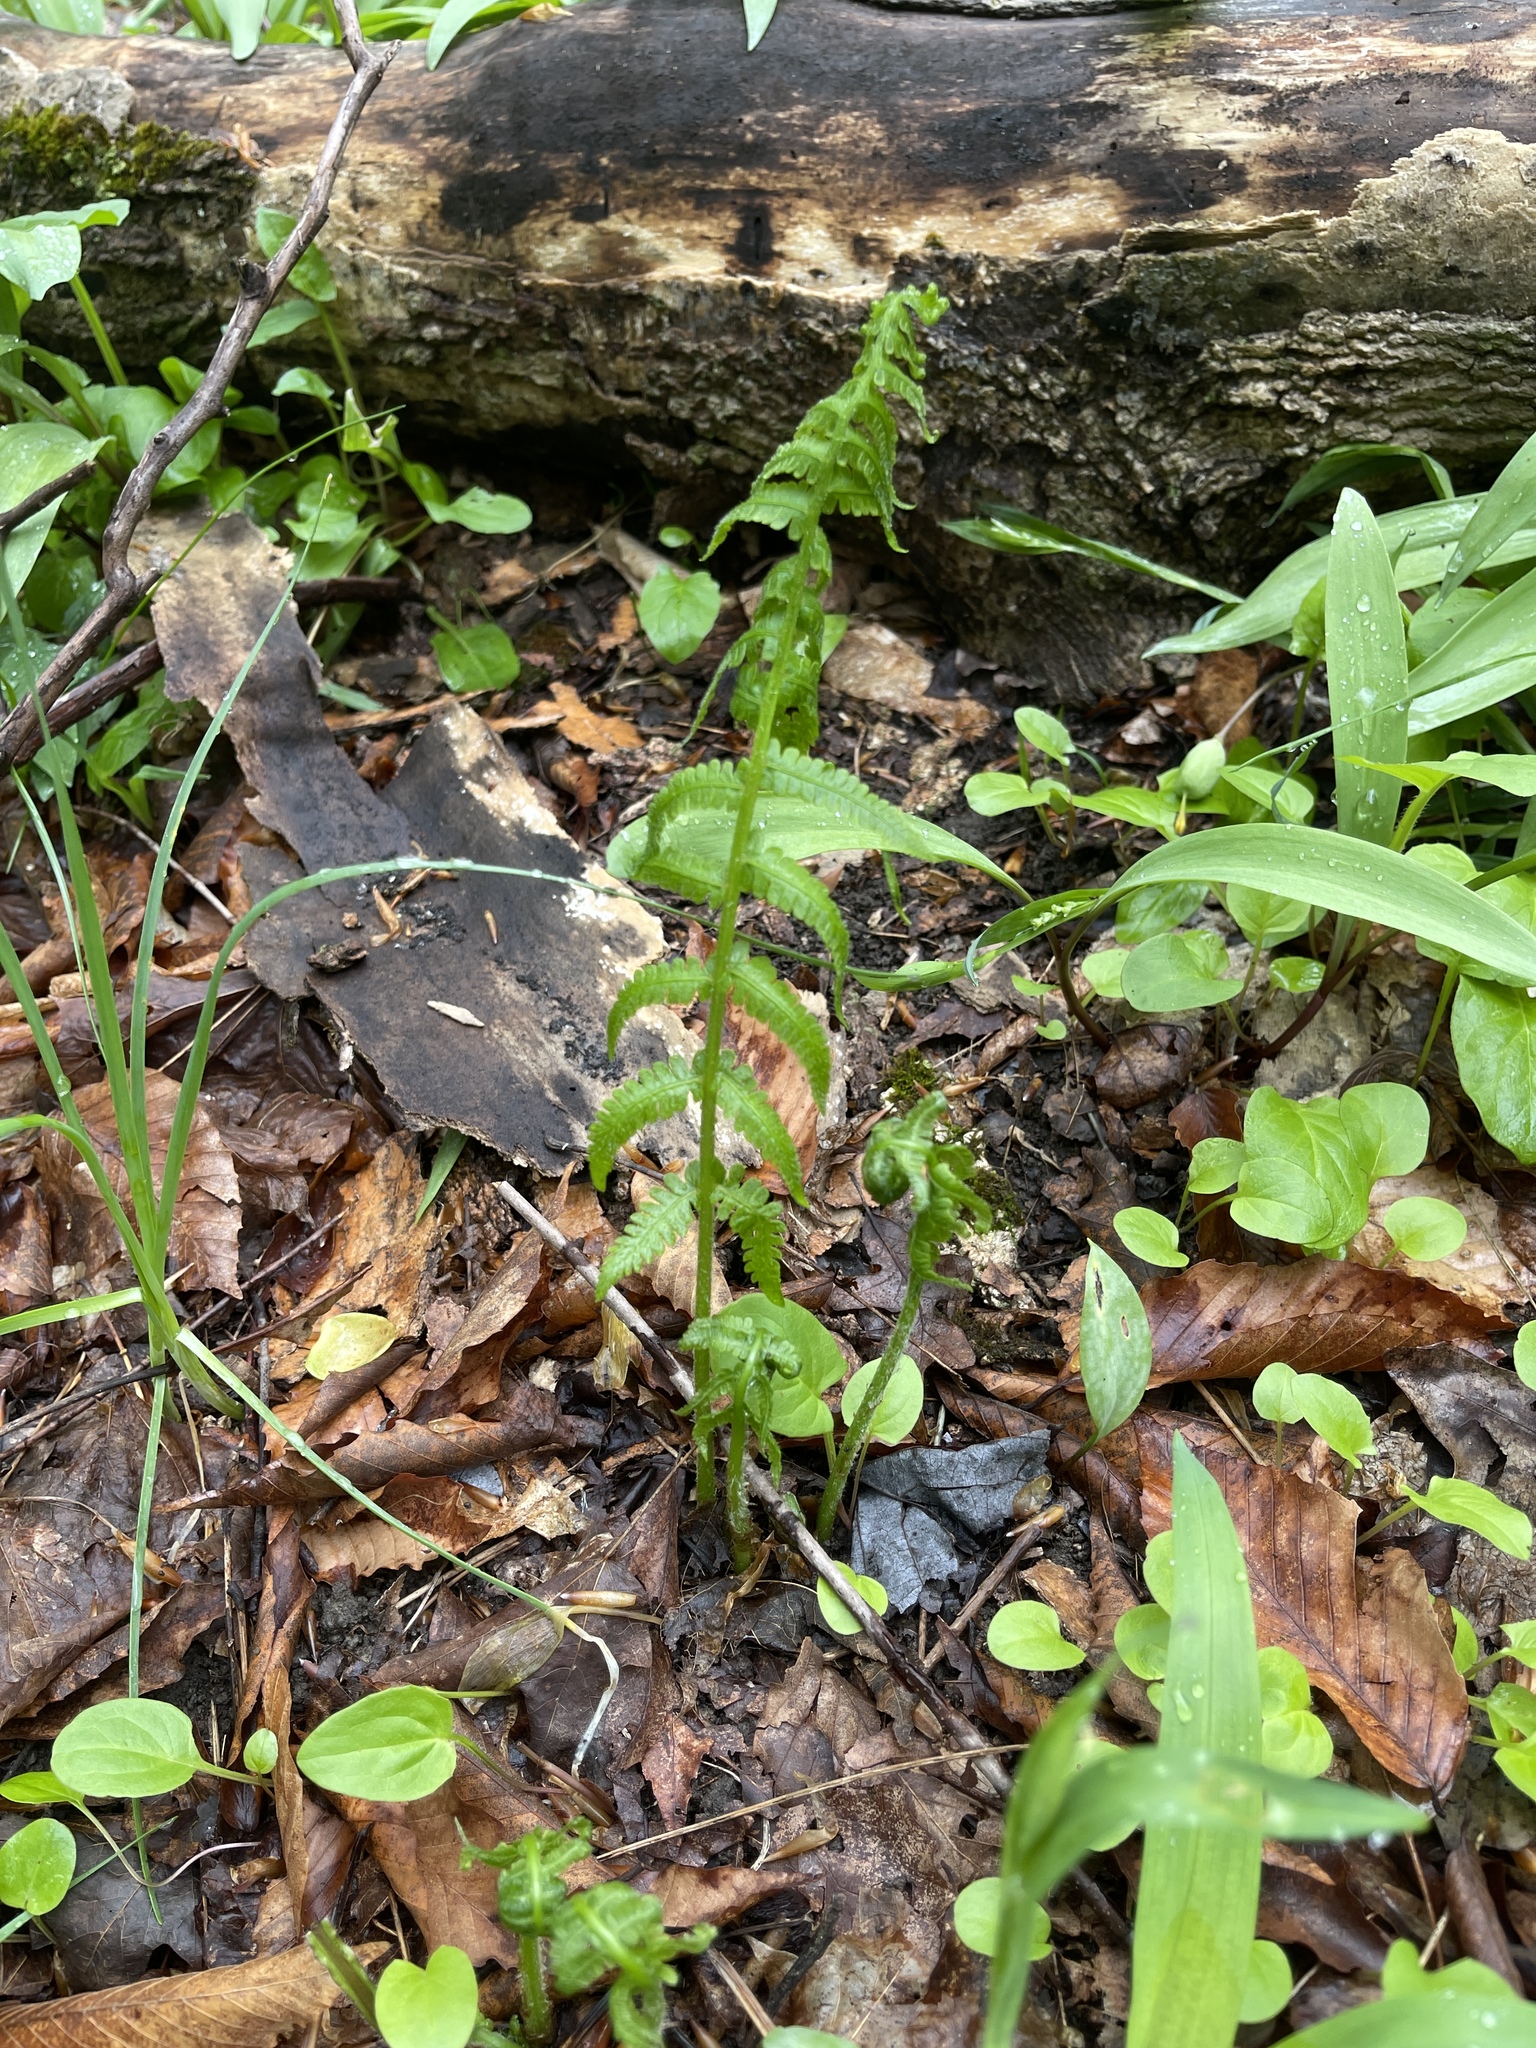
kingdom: Plantae
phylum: Tracheophyta
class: Polypodiopsida
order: Polypodiales
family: Athyriaceae
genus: Deparia
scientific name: Deparia acrostichoides
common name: Silver false spleenwort
